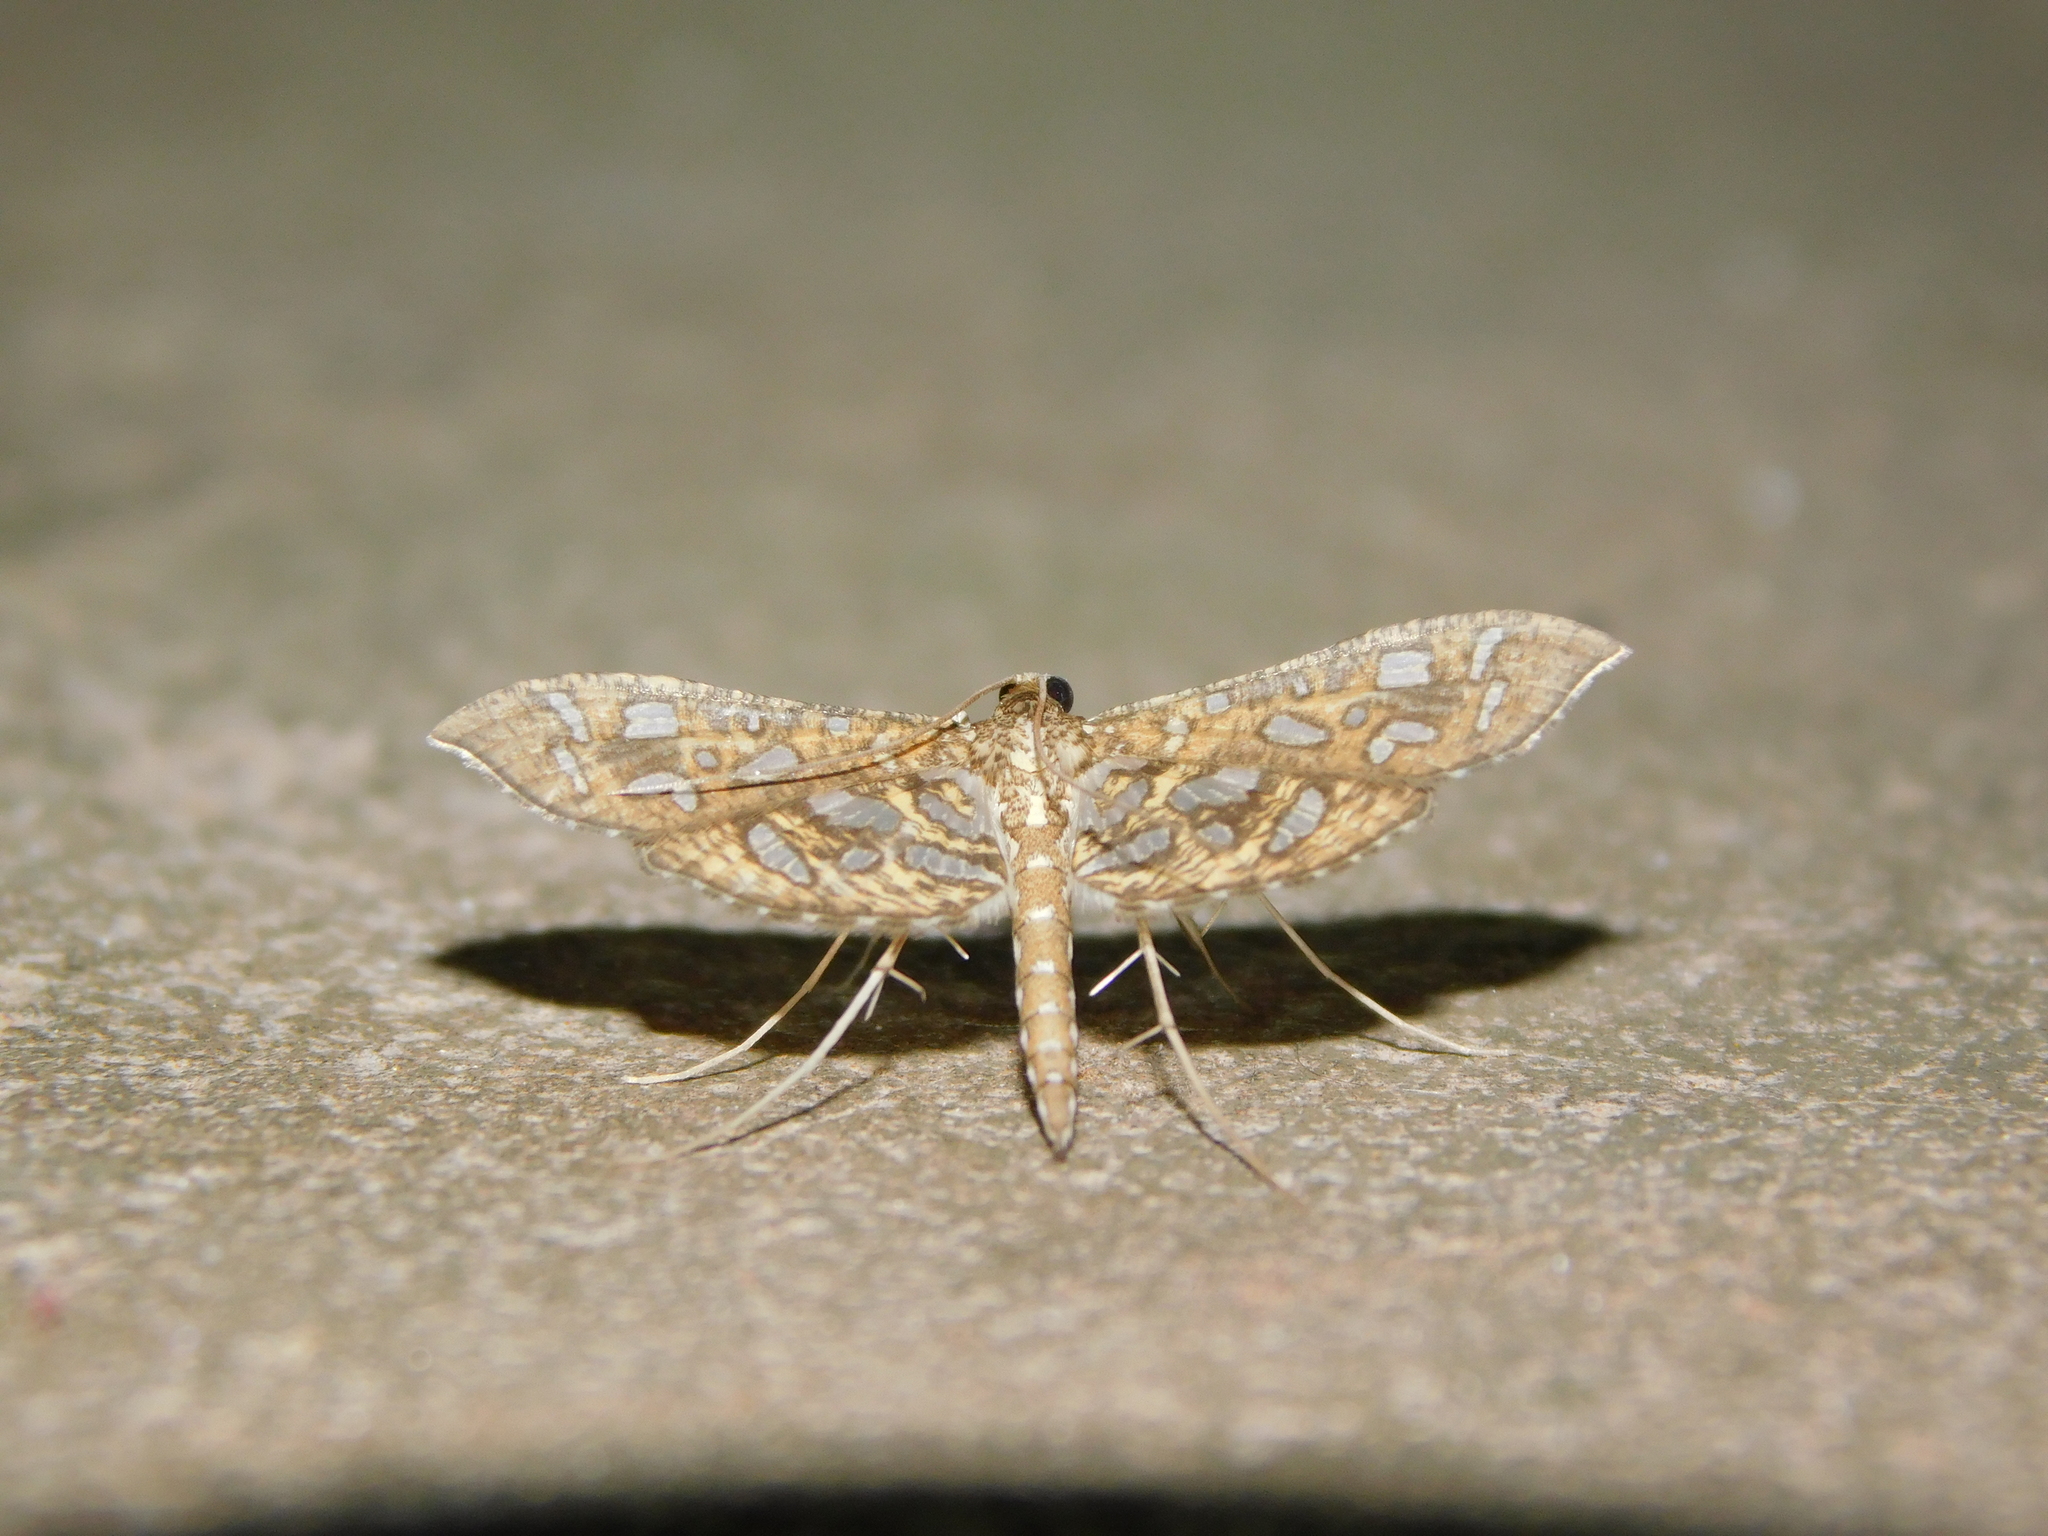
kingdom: Animalia
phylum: Arthropoda
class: Insecta
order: Lepidoptera
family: Crambidae
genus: Nausinoe
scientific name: Nausinoe geometralis
